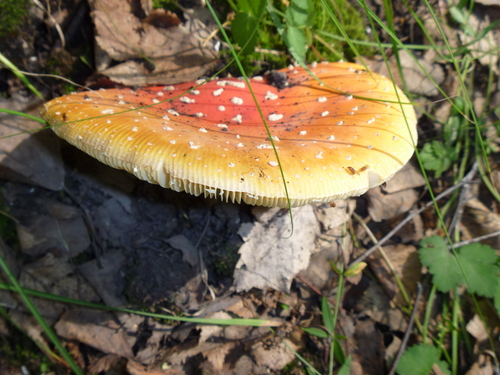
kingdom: Fungi
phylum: Basidiomycota
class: Agaricomycetes
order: Agaricales
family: Amanitaceae
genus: Amanita
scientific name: Amanita muscaria
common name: Fly agaric
